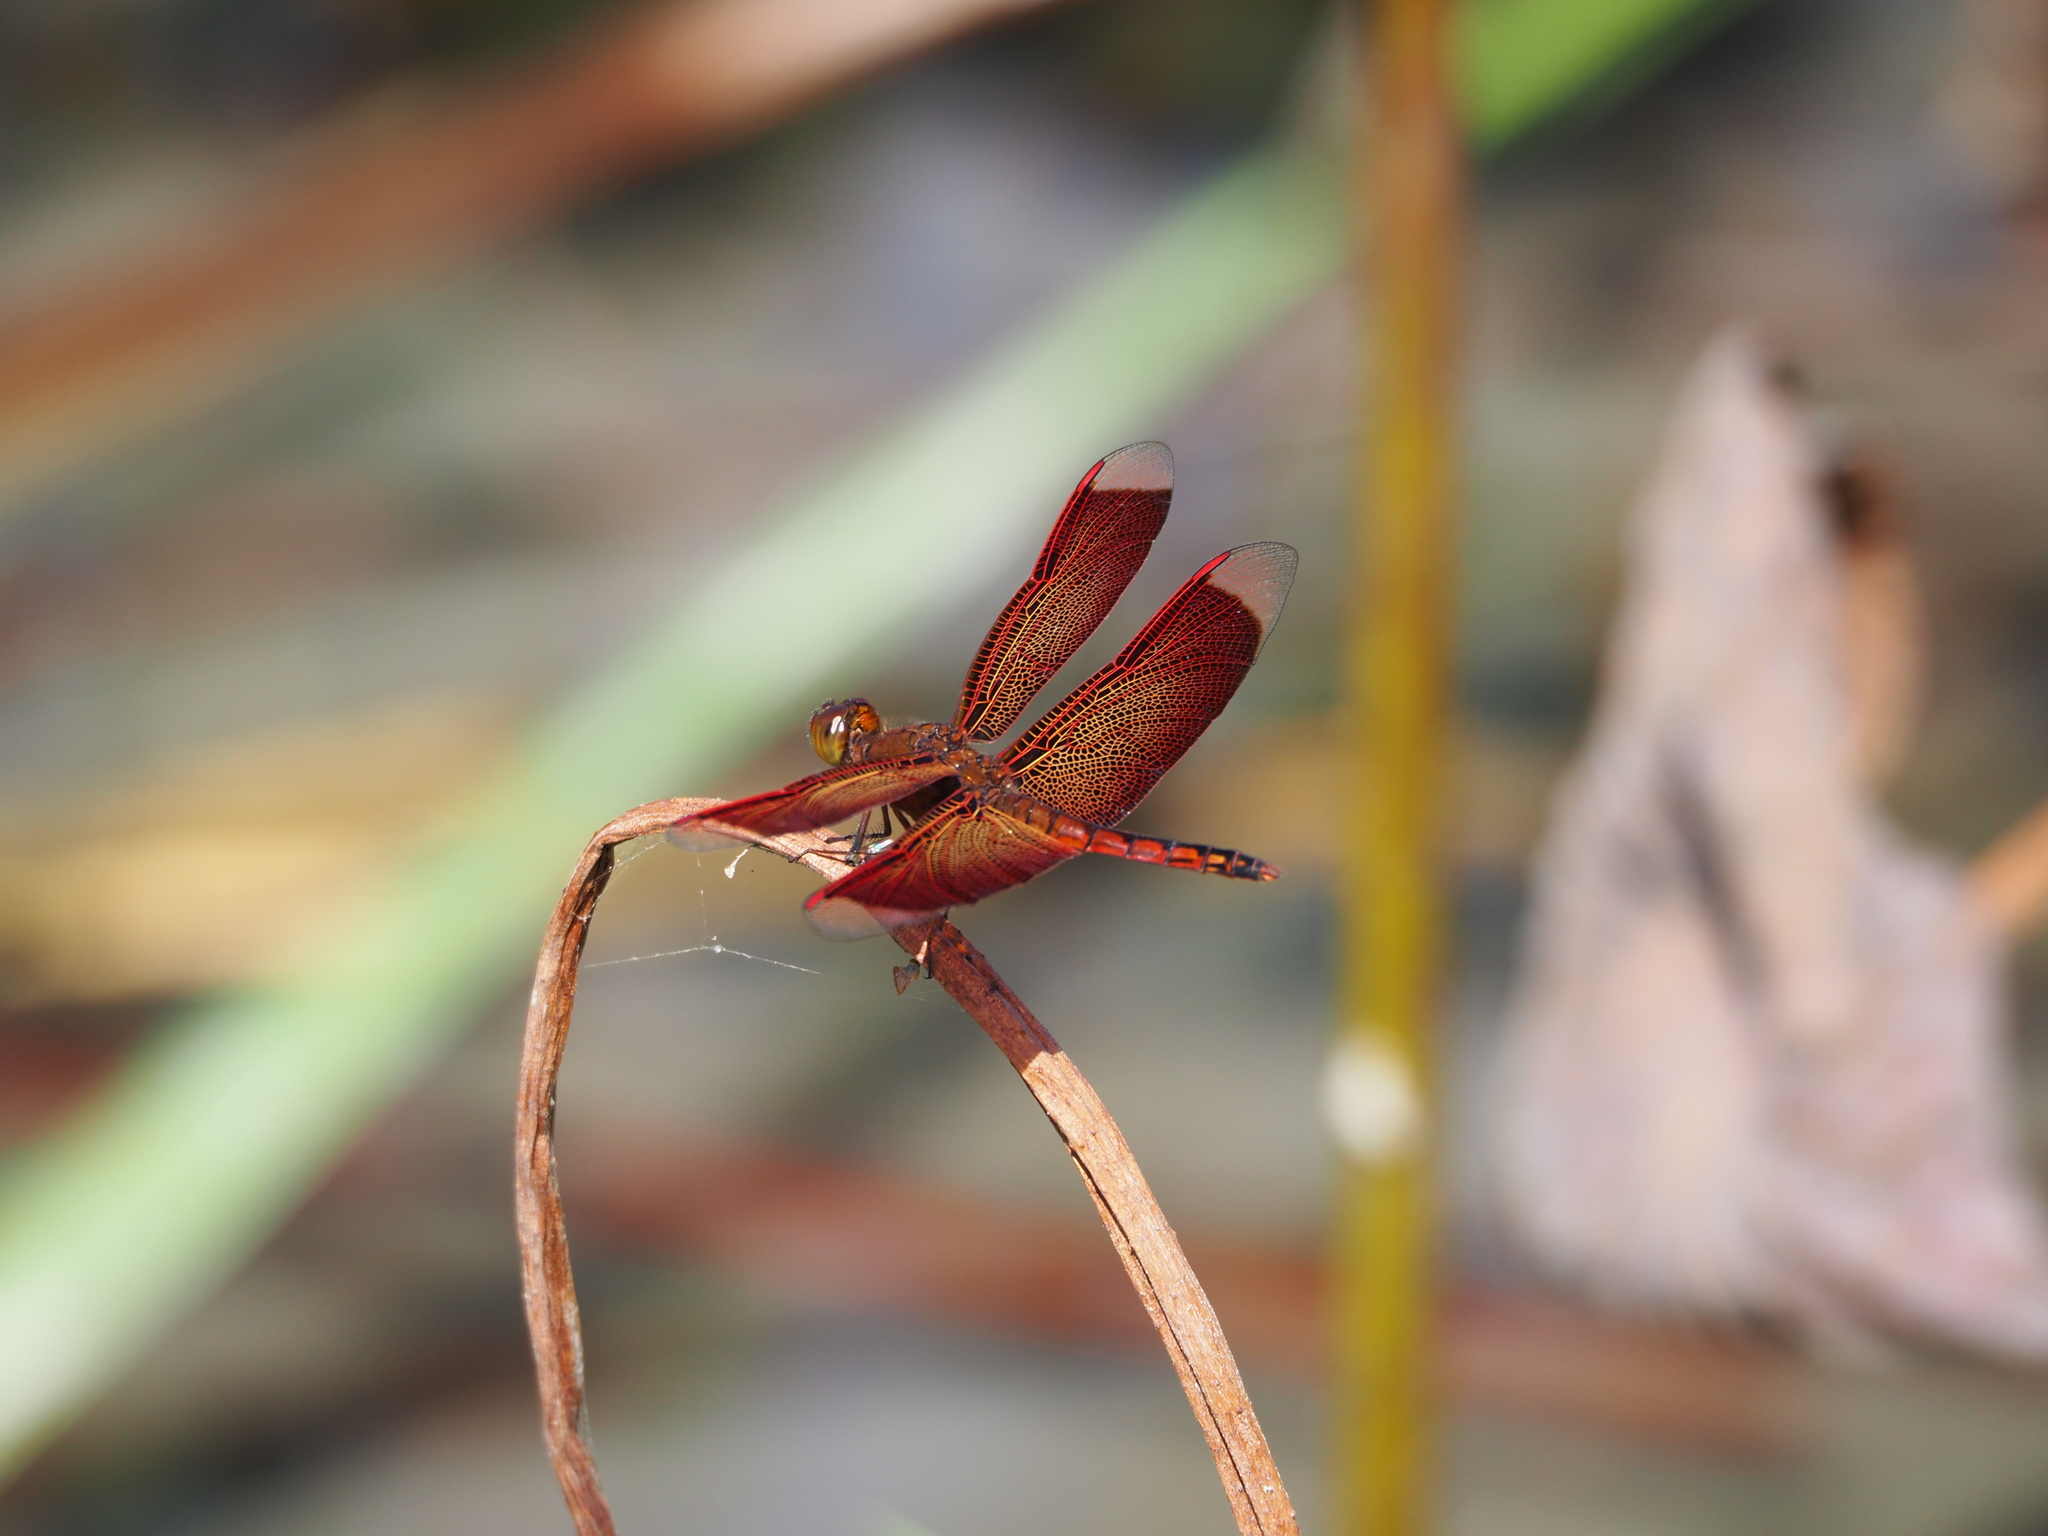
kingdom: Animalia
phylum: Arthropoda
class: Insecta
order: Odonata
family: Libellulidae
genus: Neurothemis
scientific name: Neurothemis taiwanensis
